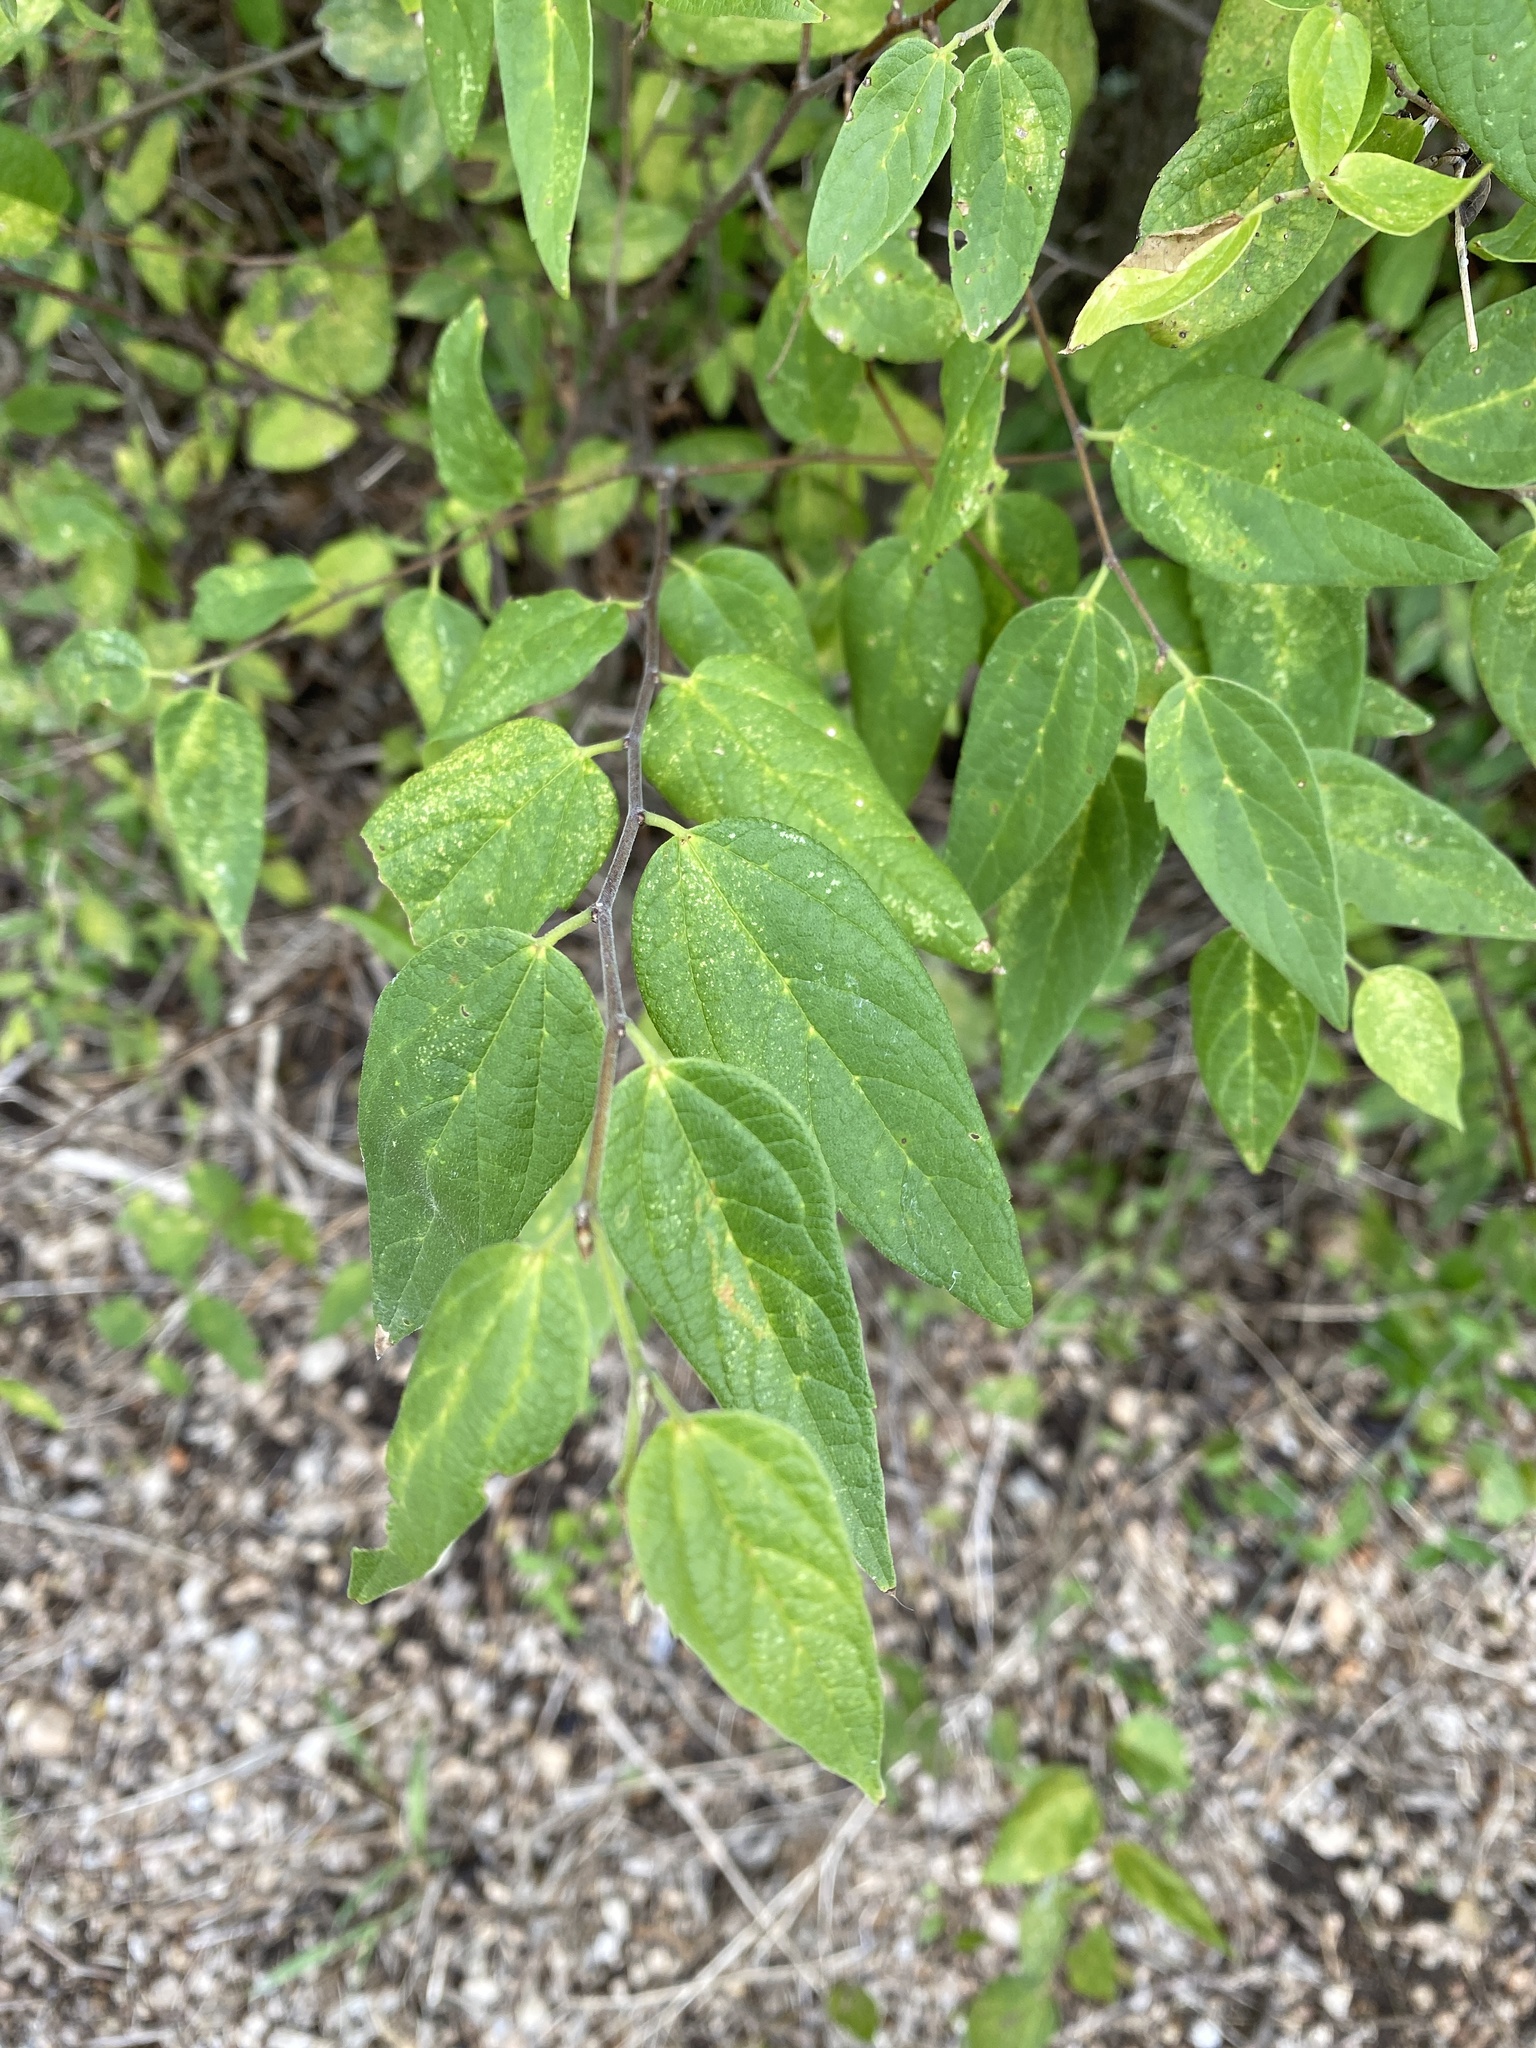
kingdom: Plantae
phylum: Tracheophyta
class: Magnoliopsida
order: Rosales
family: Cannabaceae
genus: Celtis
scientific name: Celtis laevigata
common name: Sugarberry
